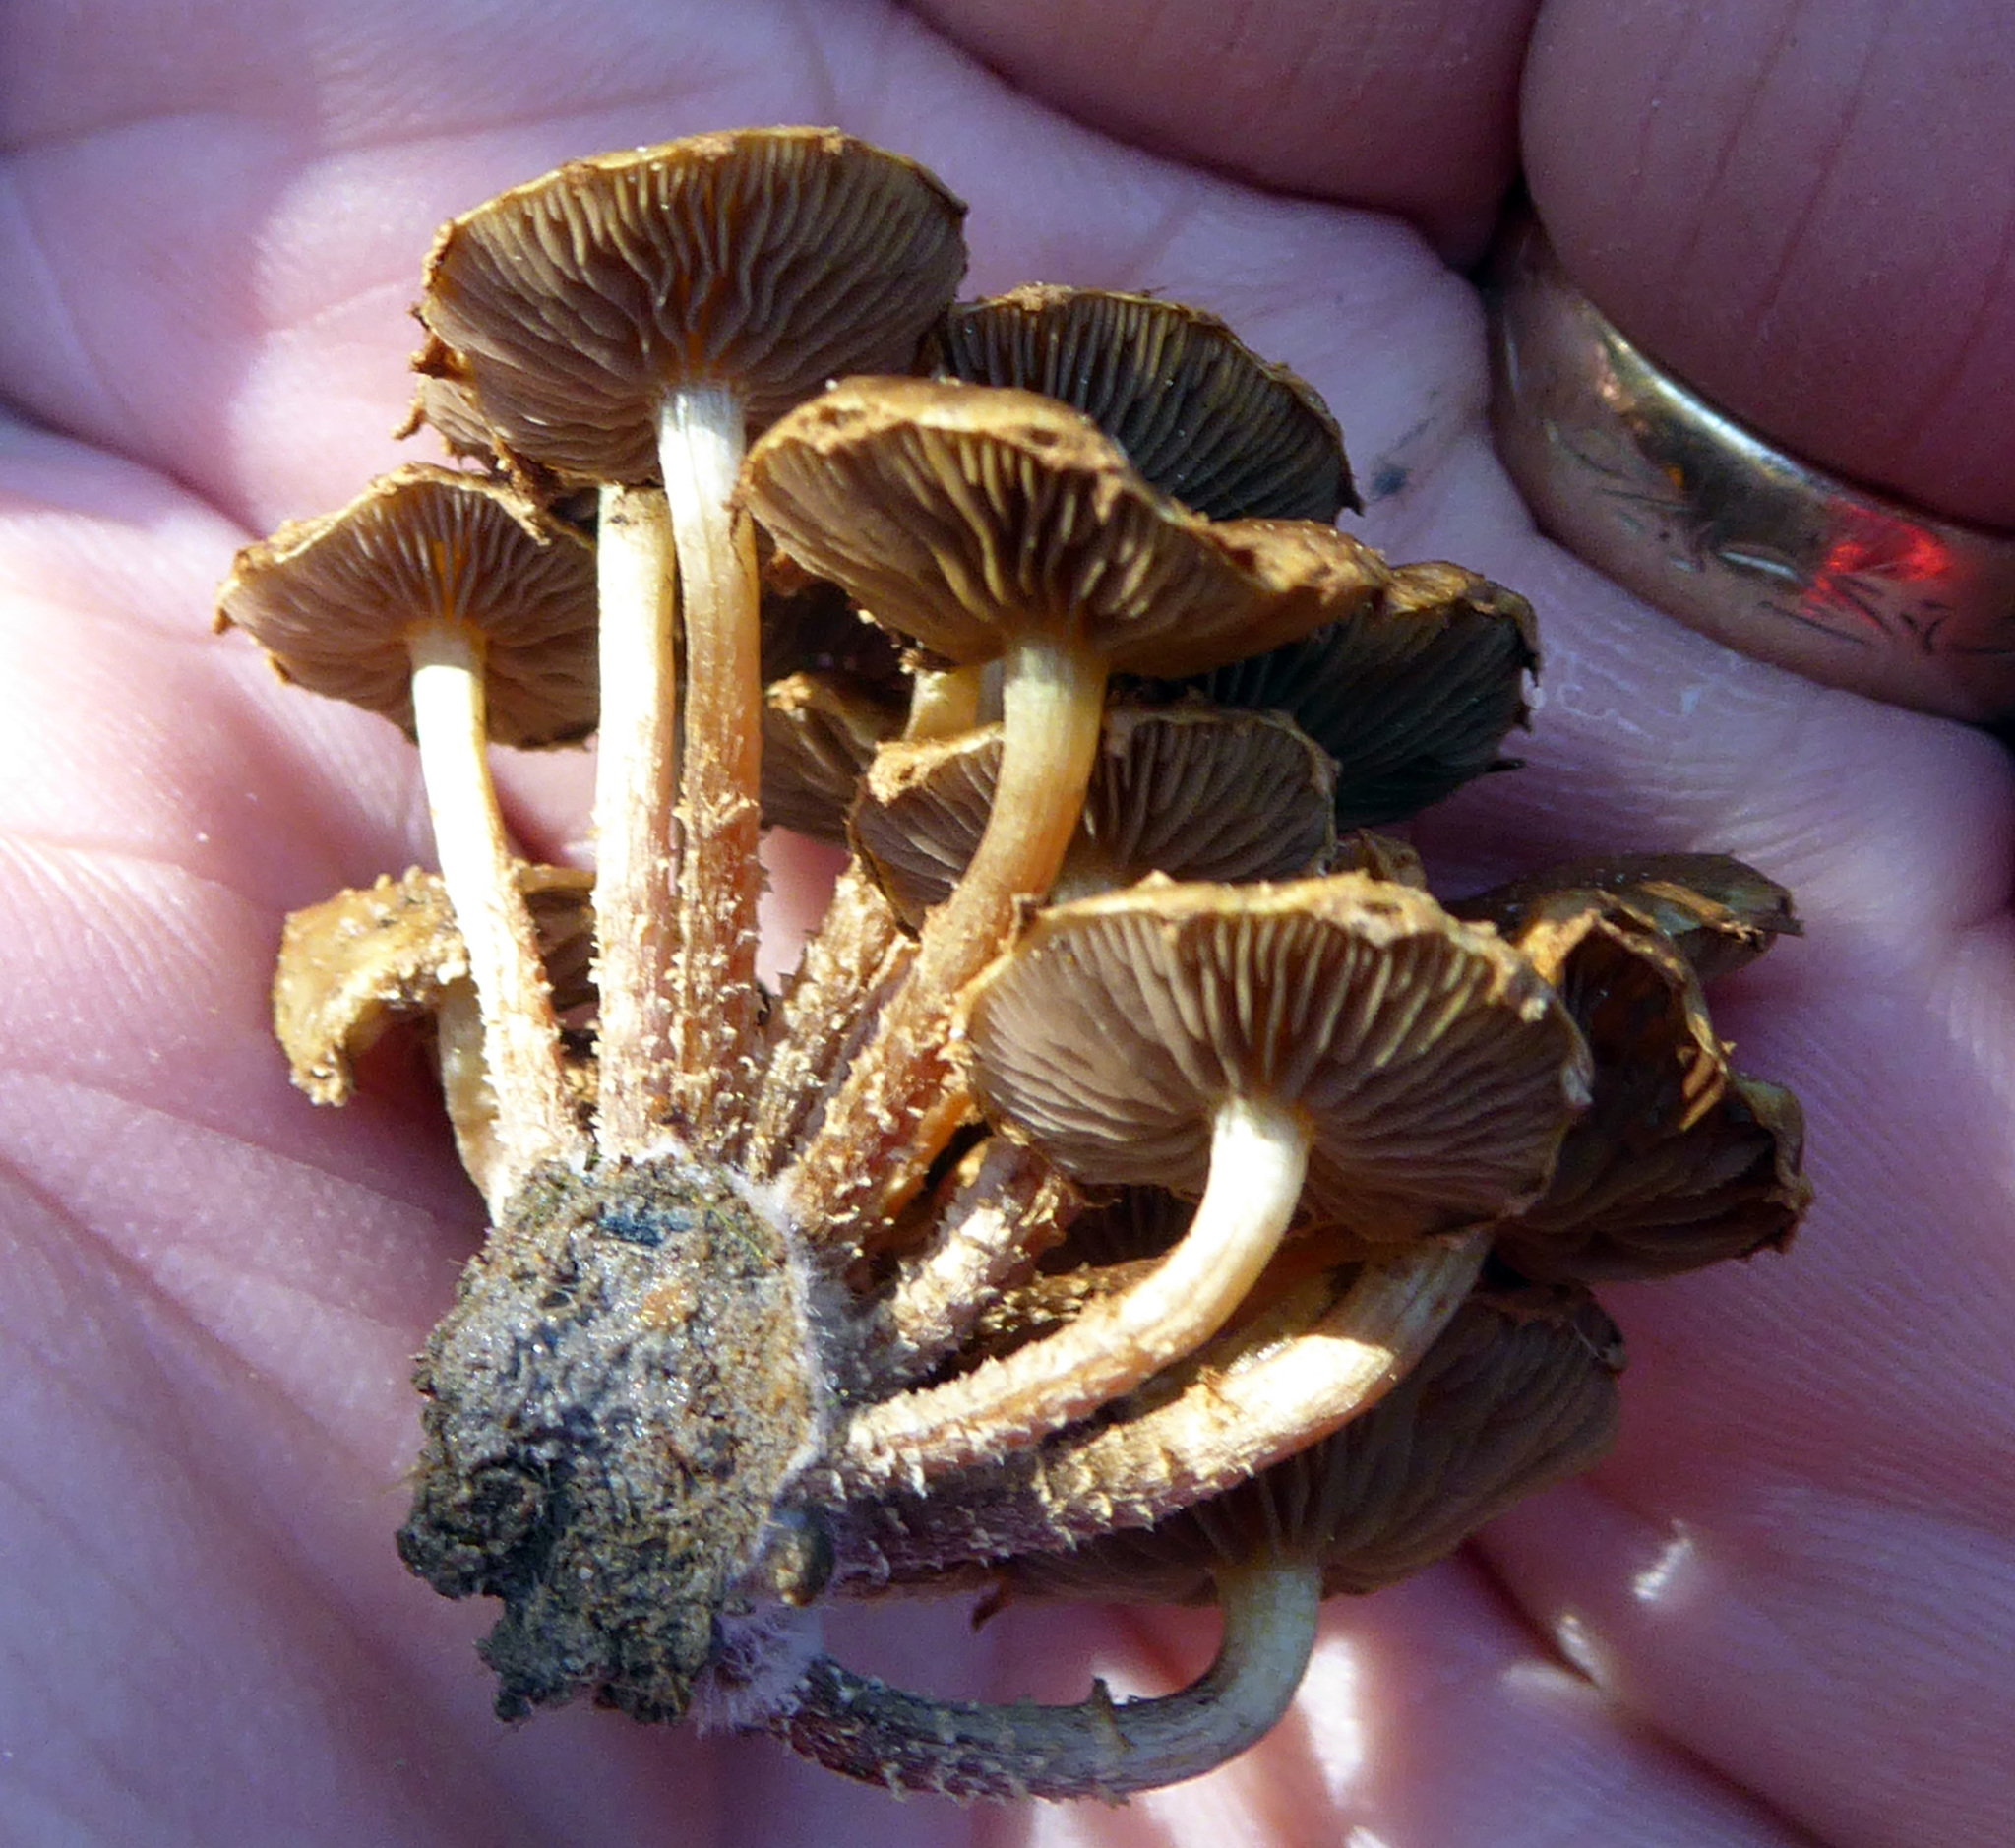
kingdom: Fungi
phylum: Basidiomycota
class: Agaricomycetes
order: Agaricales
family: Strophariaceae
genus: Pholiota
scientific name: Pholiota subflammans
